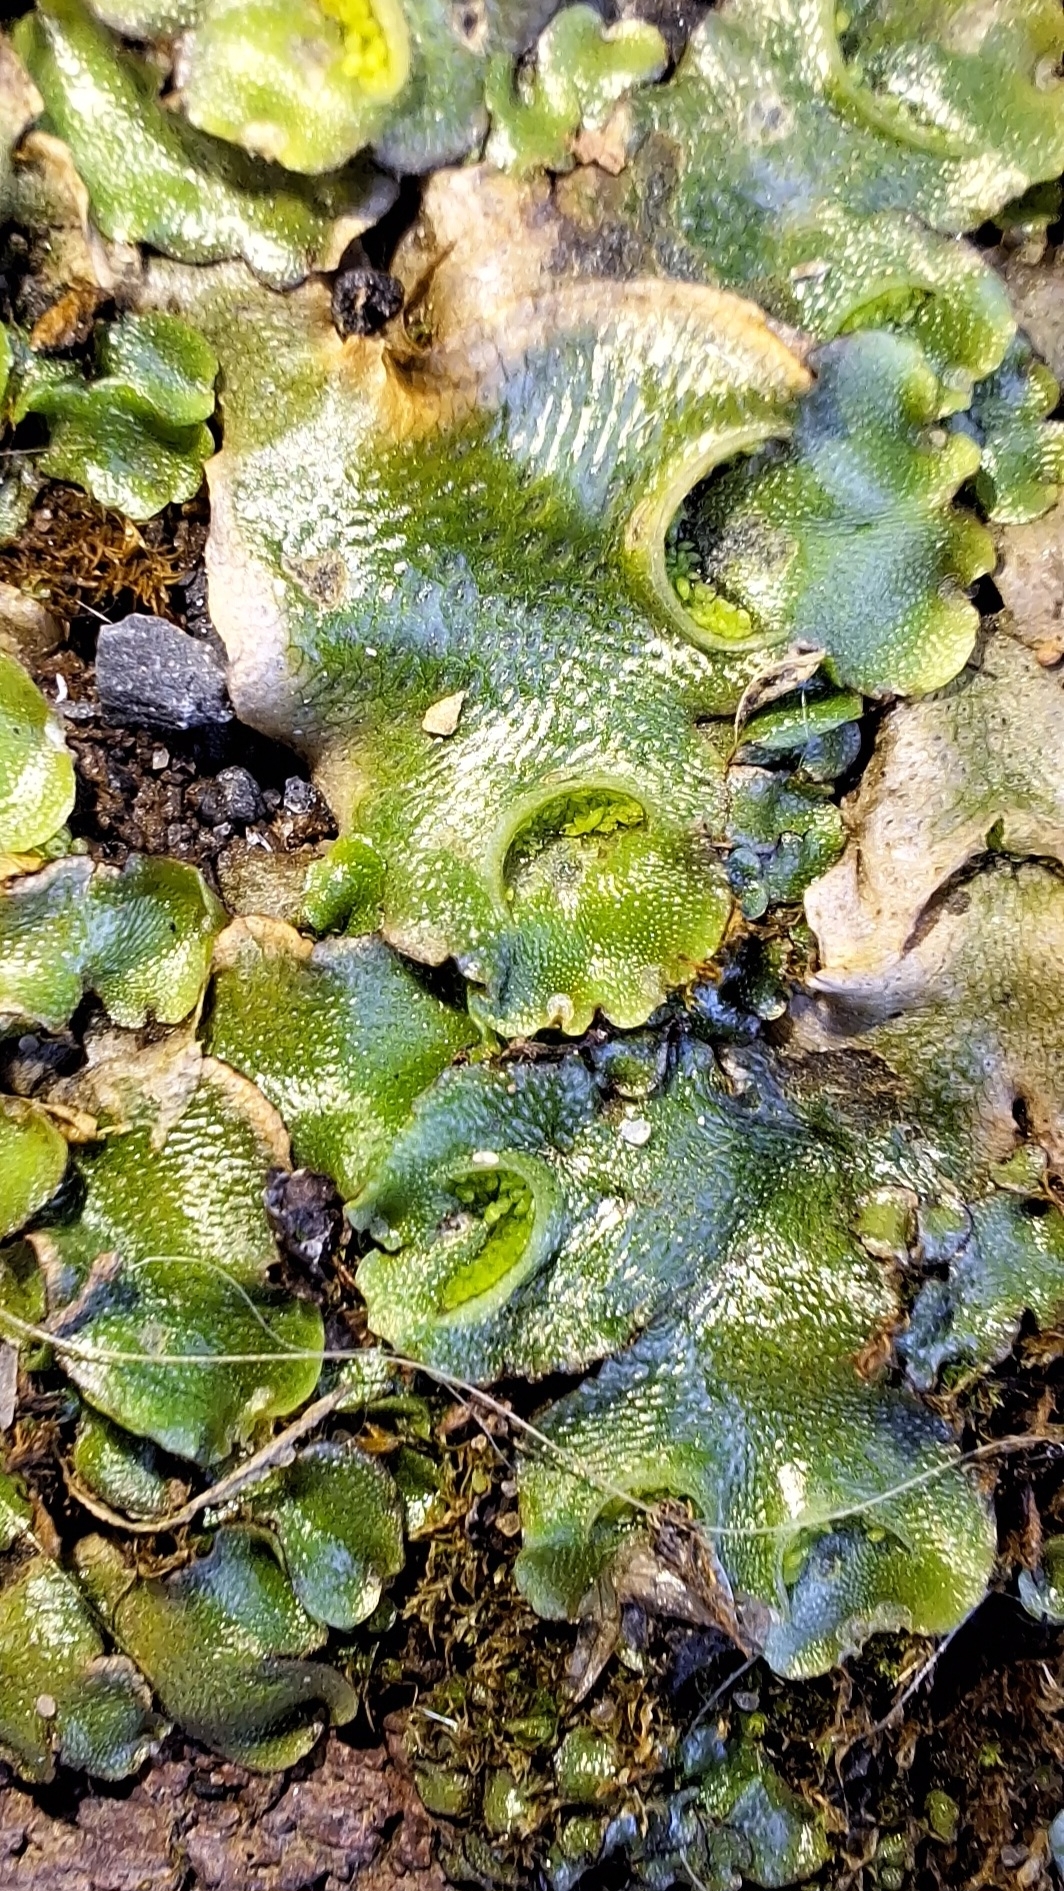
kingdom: Plantae
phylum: Marchantiophyta
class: Marchantiopsida
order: Lunulariales
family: Lunulariaceae
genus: Lunularia
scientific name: Lunularia cruciata
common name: Crescent-cup liverwort
